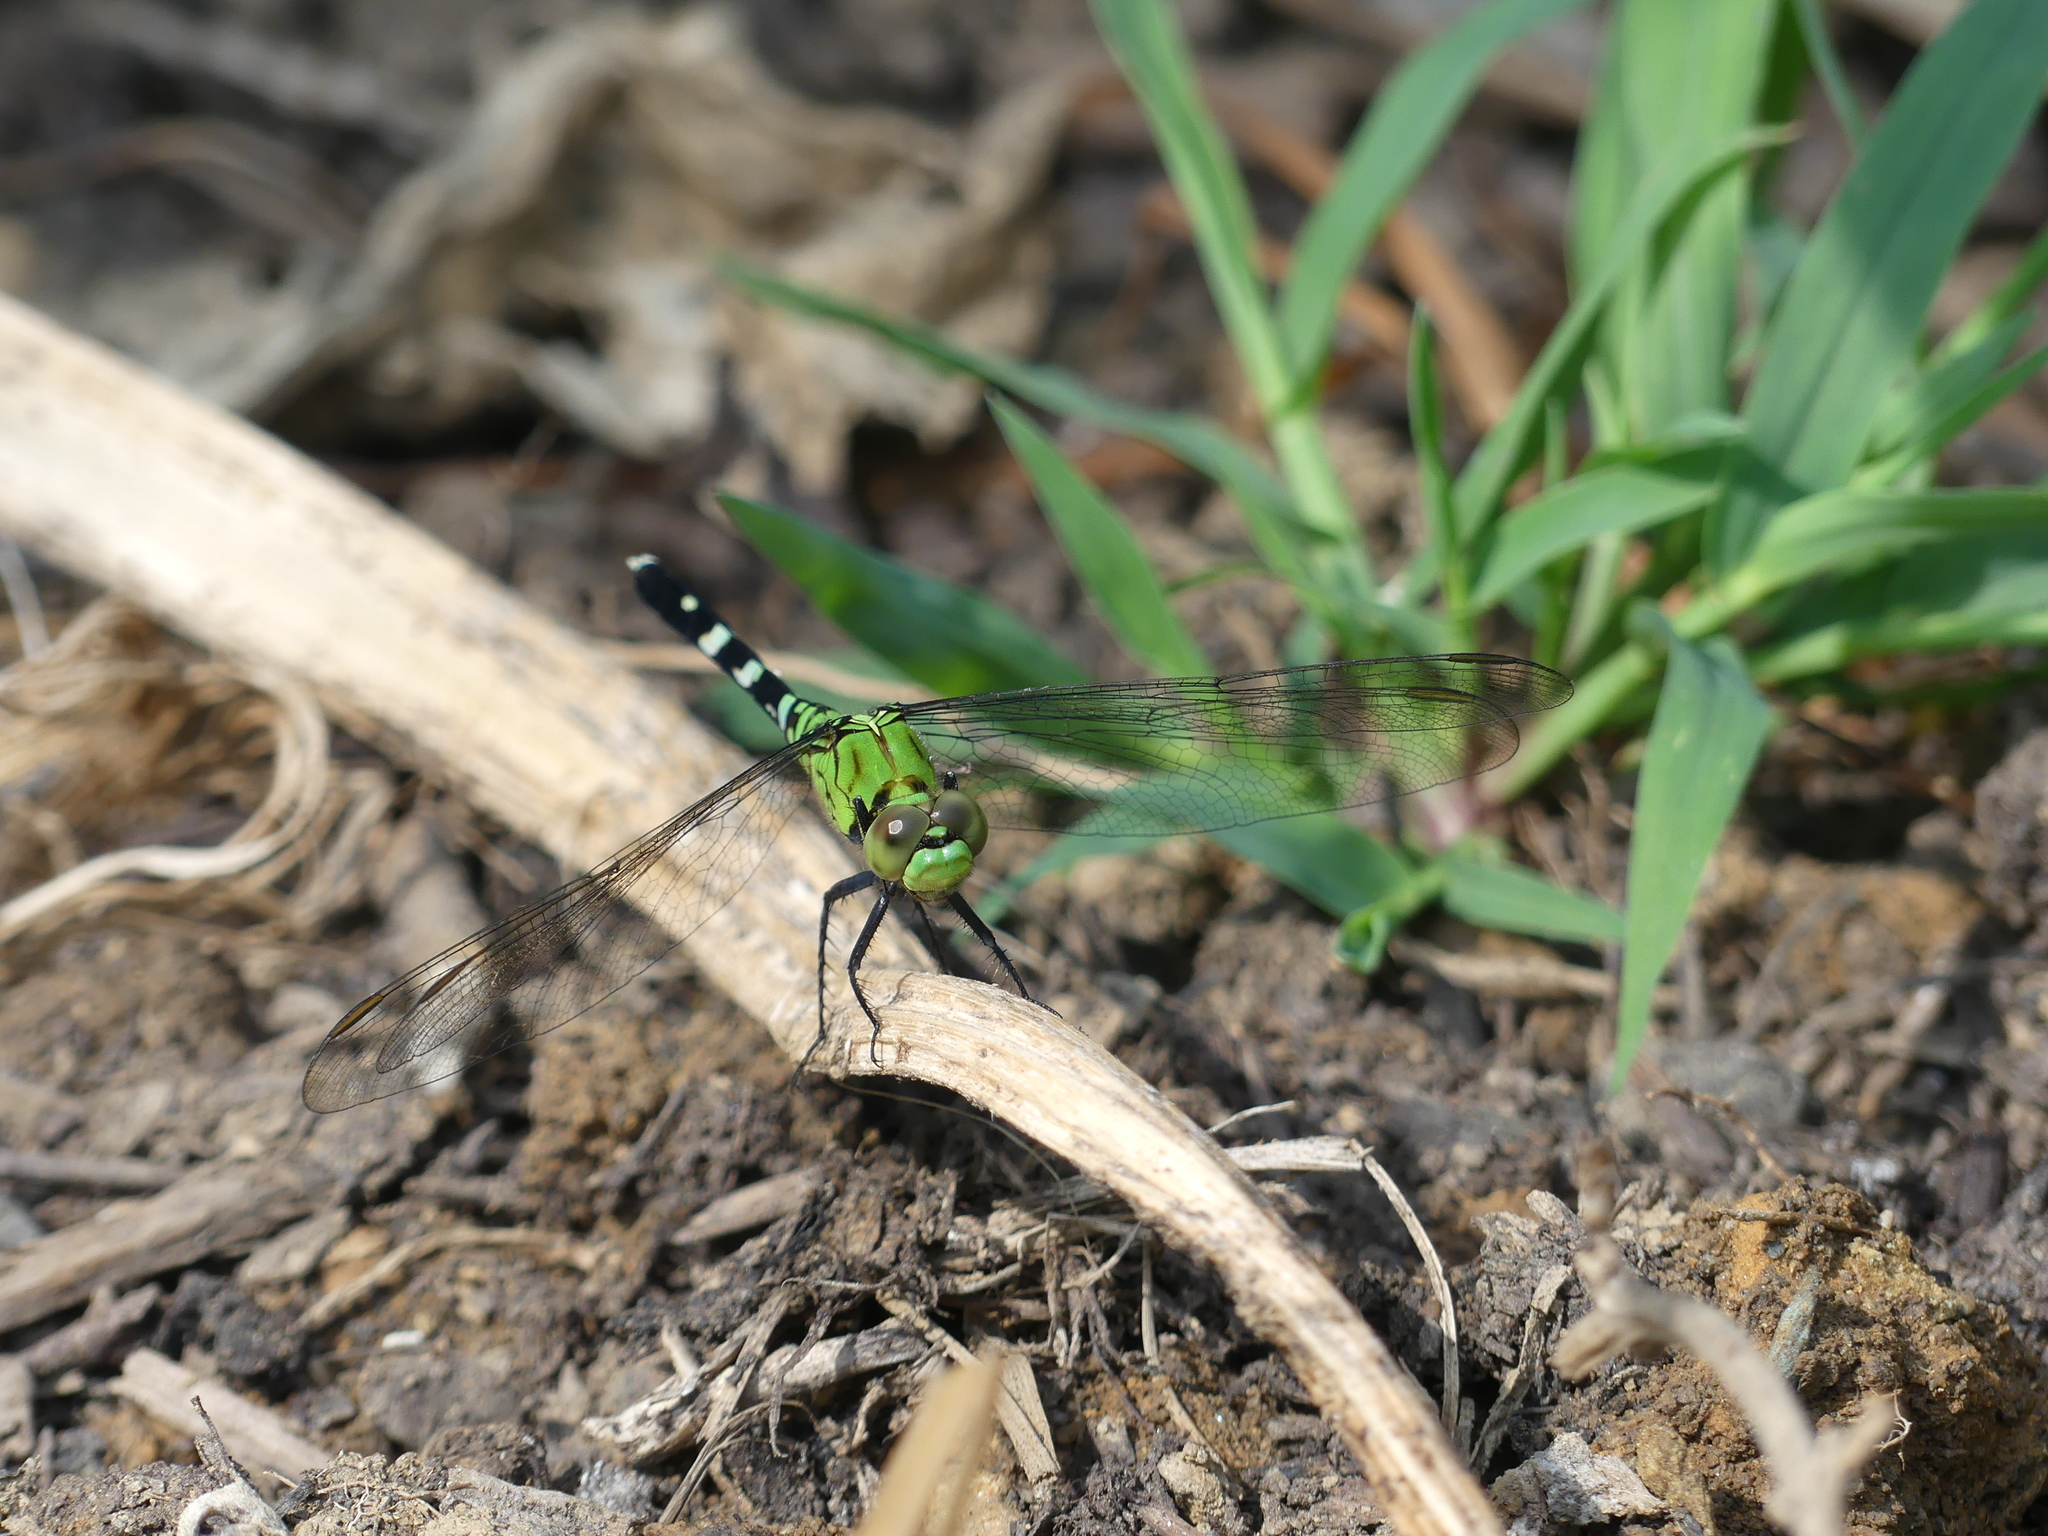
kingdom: Animalia
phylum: Arthropoda
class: Insecta
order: Odonata
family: Libellulidae
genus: Erythemis
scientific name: Erythemis simplicicollis
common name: Eastern pondhawk
